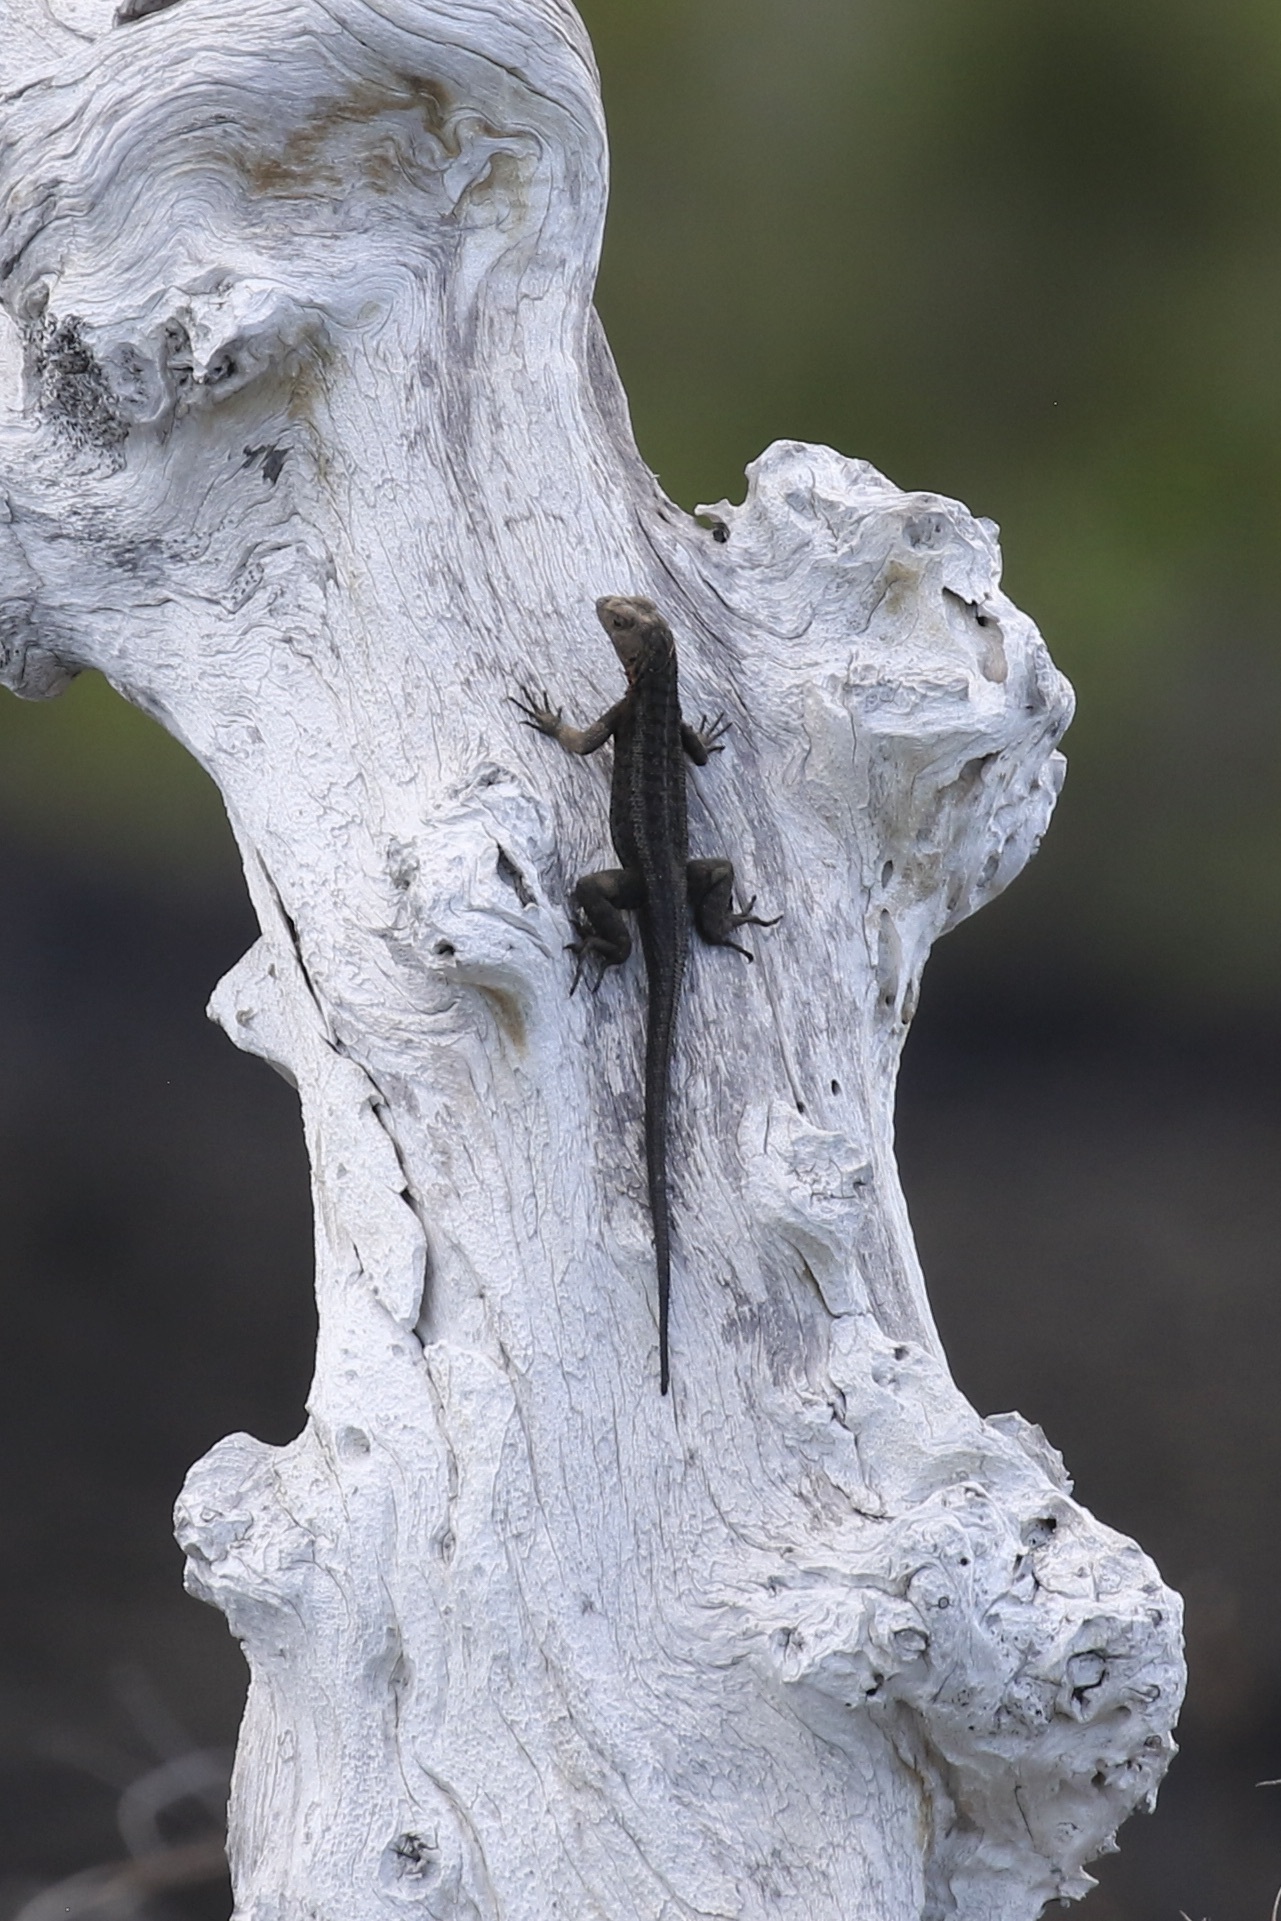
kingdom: Animalia
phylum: Chordata
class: Squamata
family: Tropiduridae
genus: Microlophus
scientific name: Microlophus albemarlensis
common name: Galapagos lava lizard
